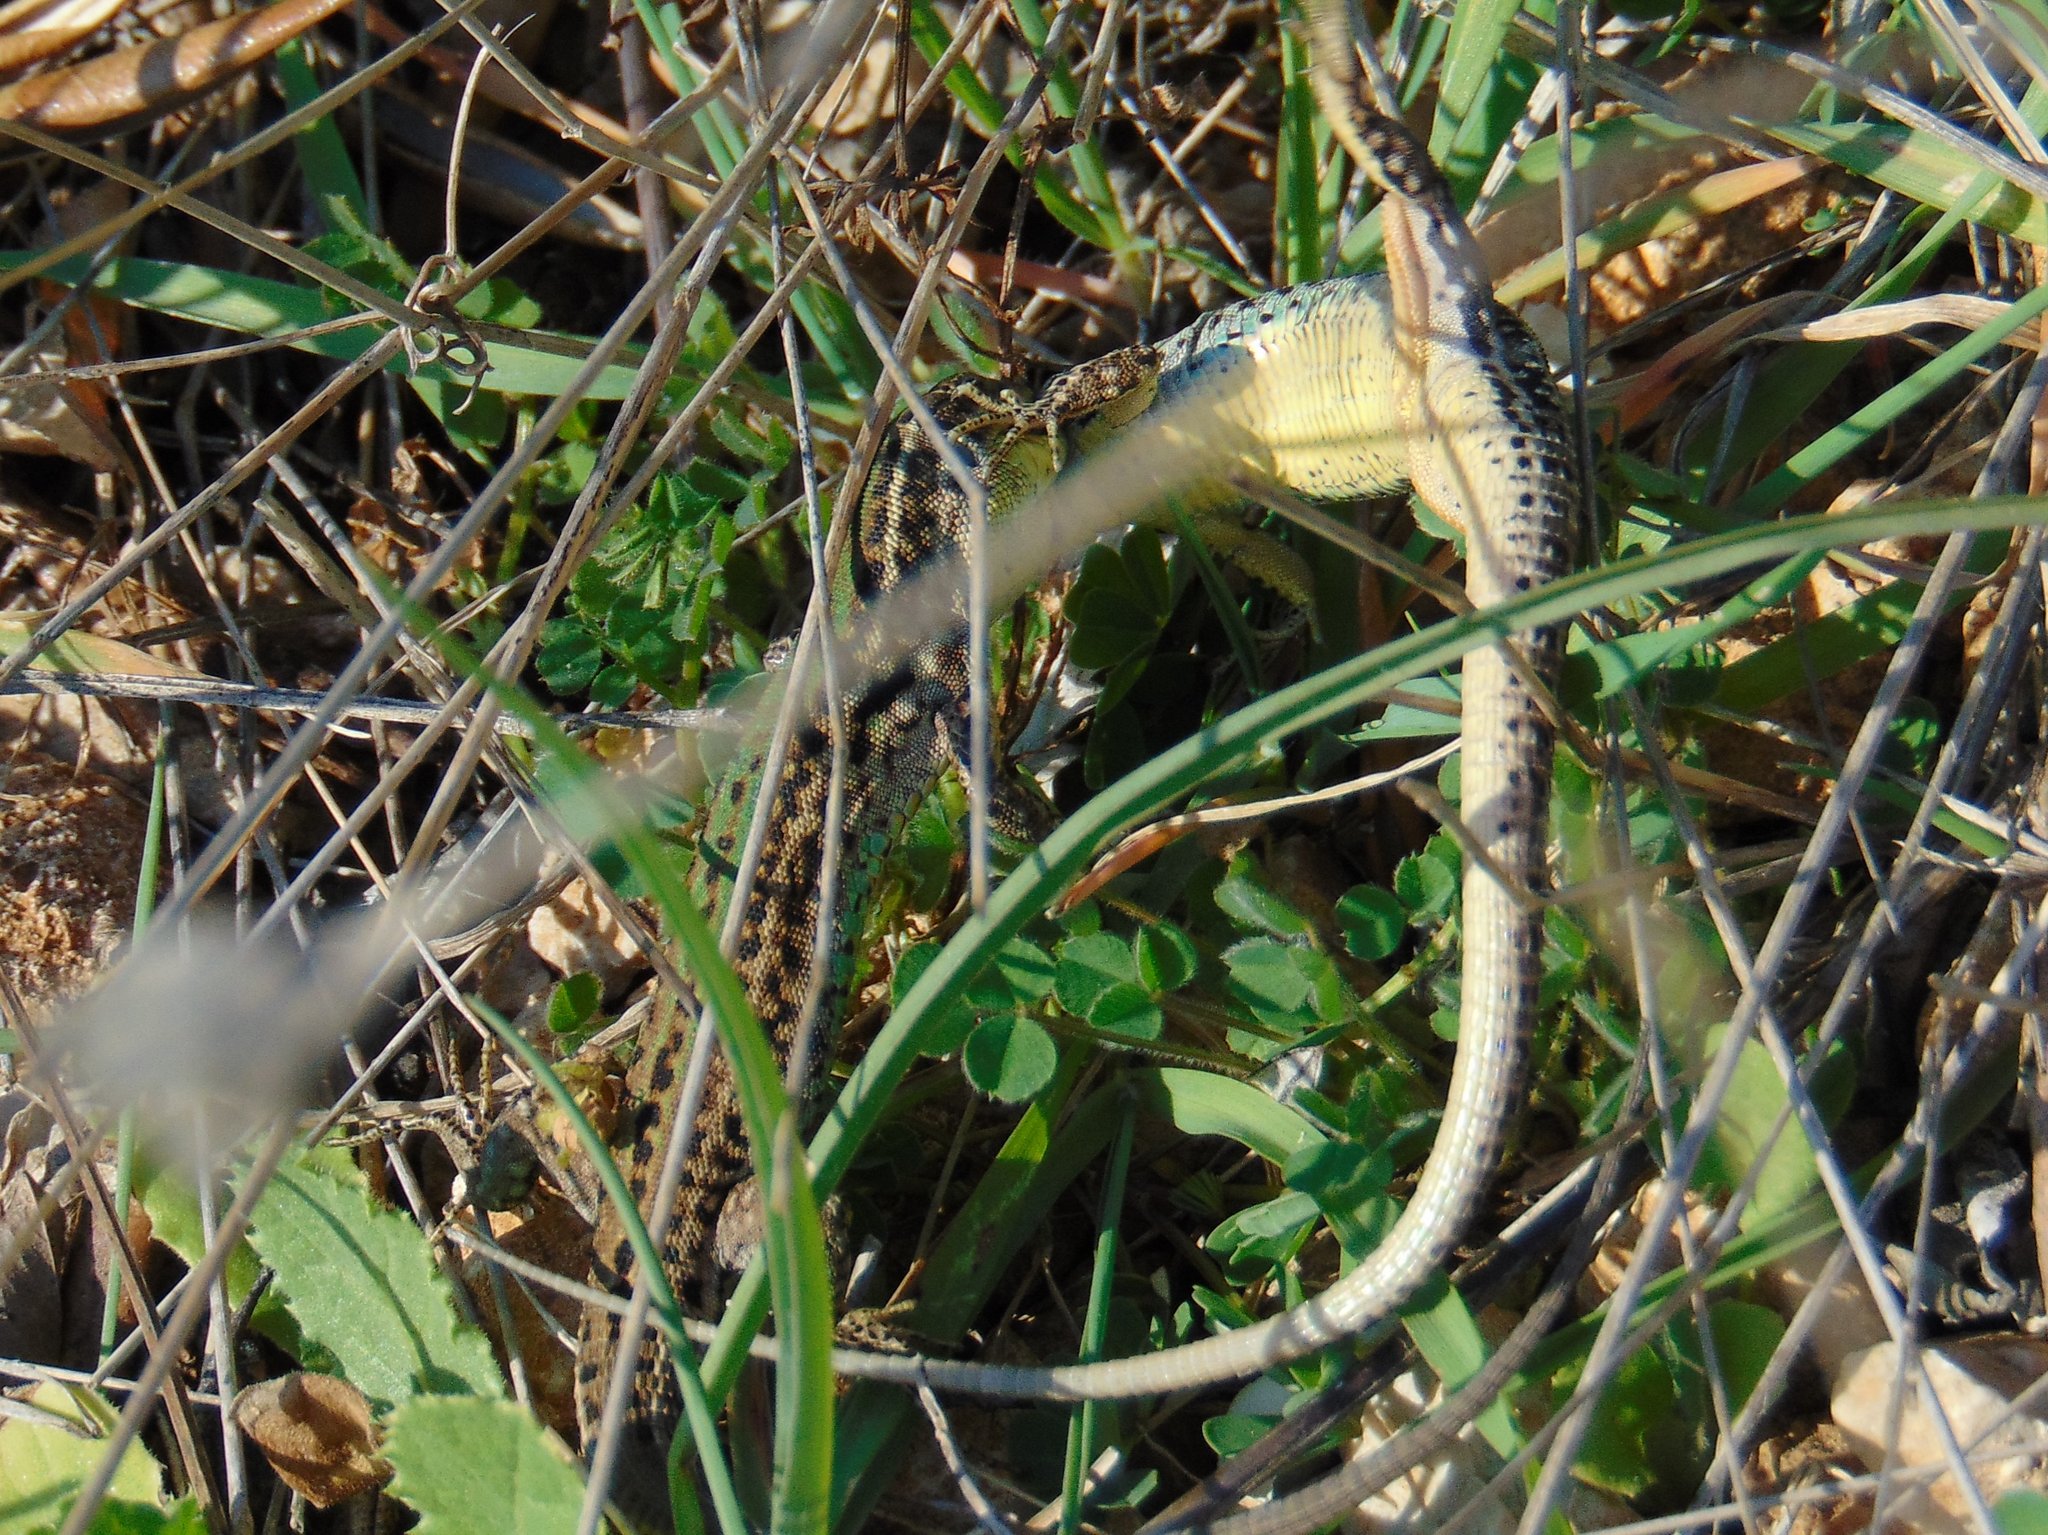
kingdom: Animalia
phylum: Chordata
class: Squamata
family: Lacertidae
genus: Podarcis
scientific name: Podarcis melisellensis
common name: Dalmatian wall lizard
